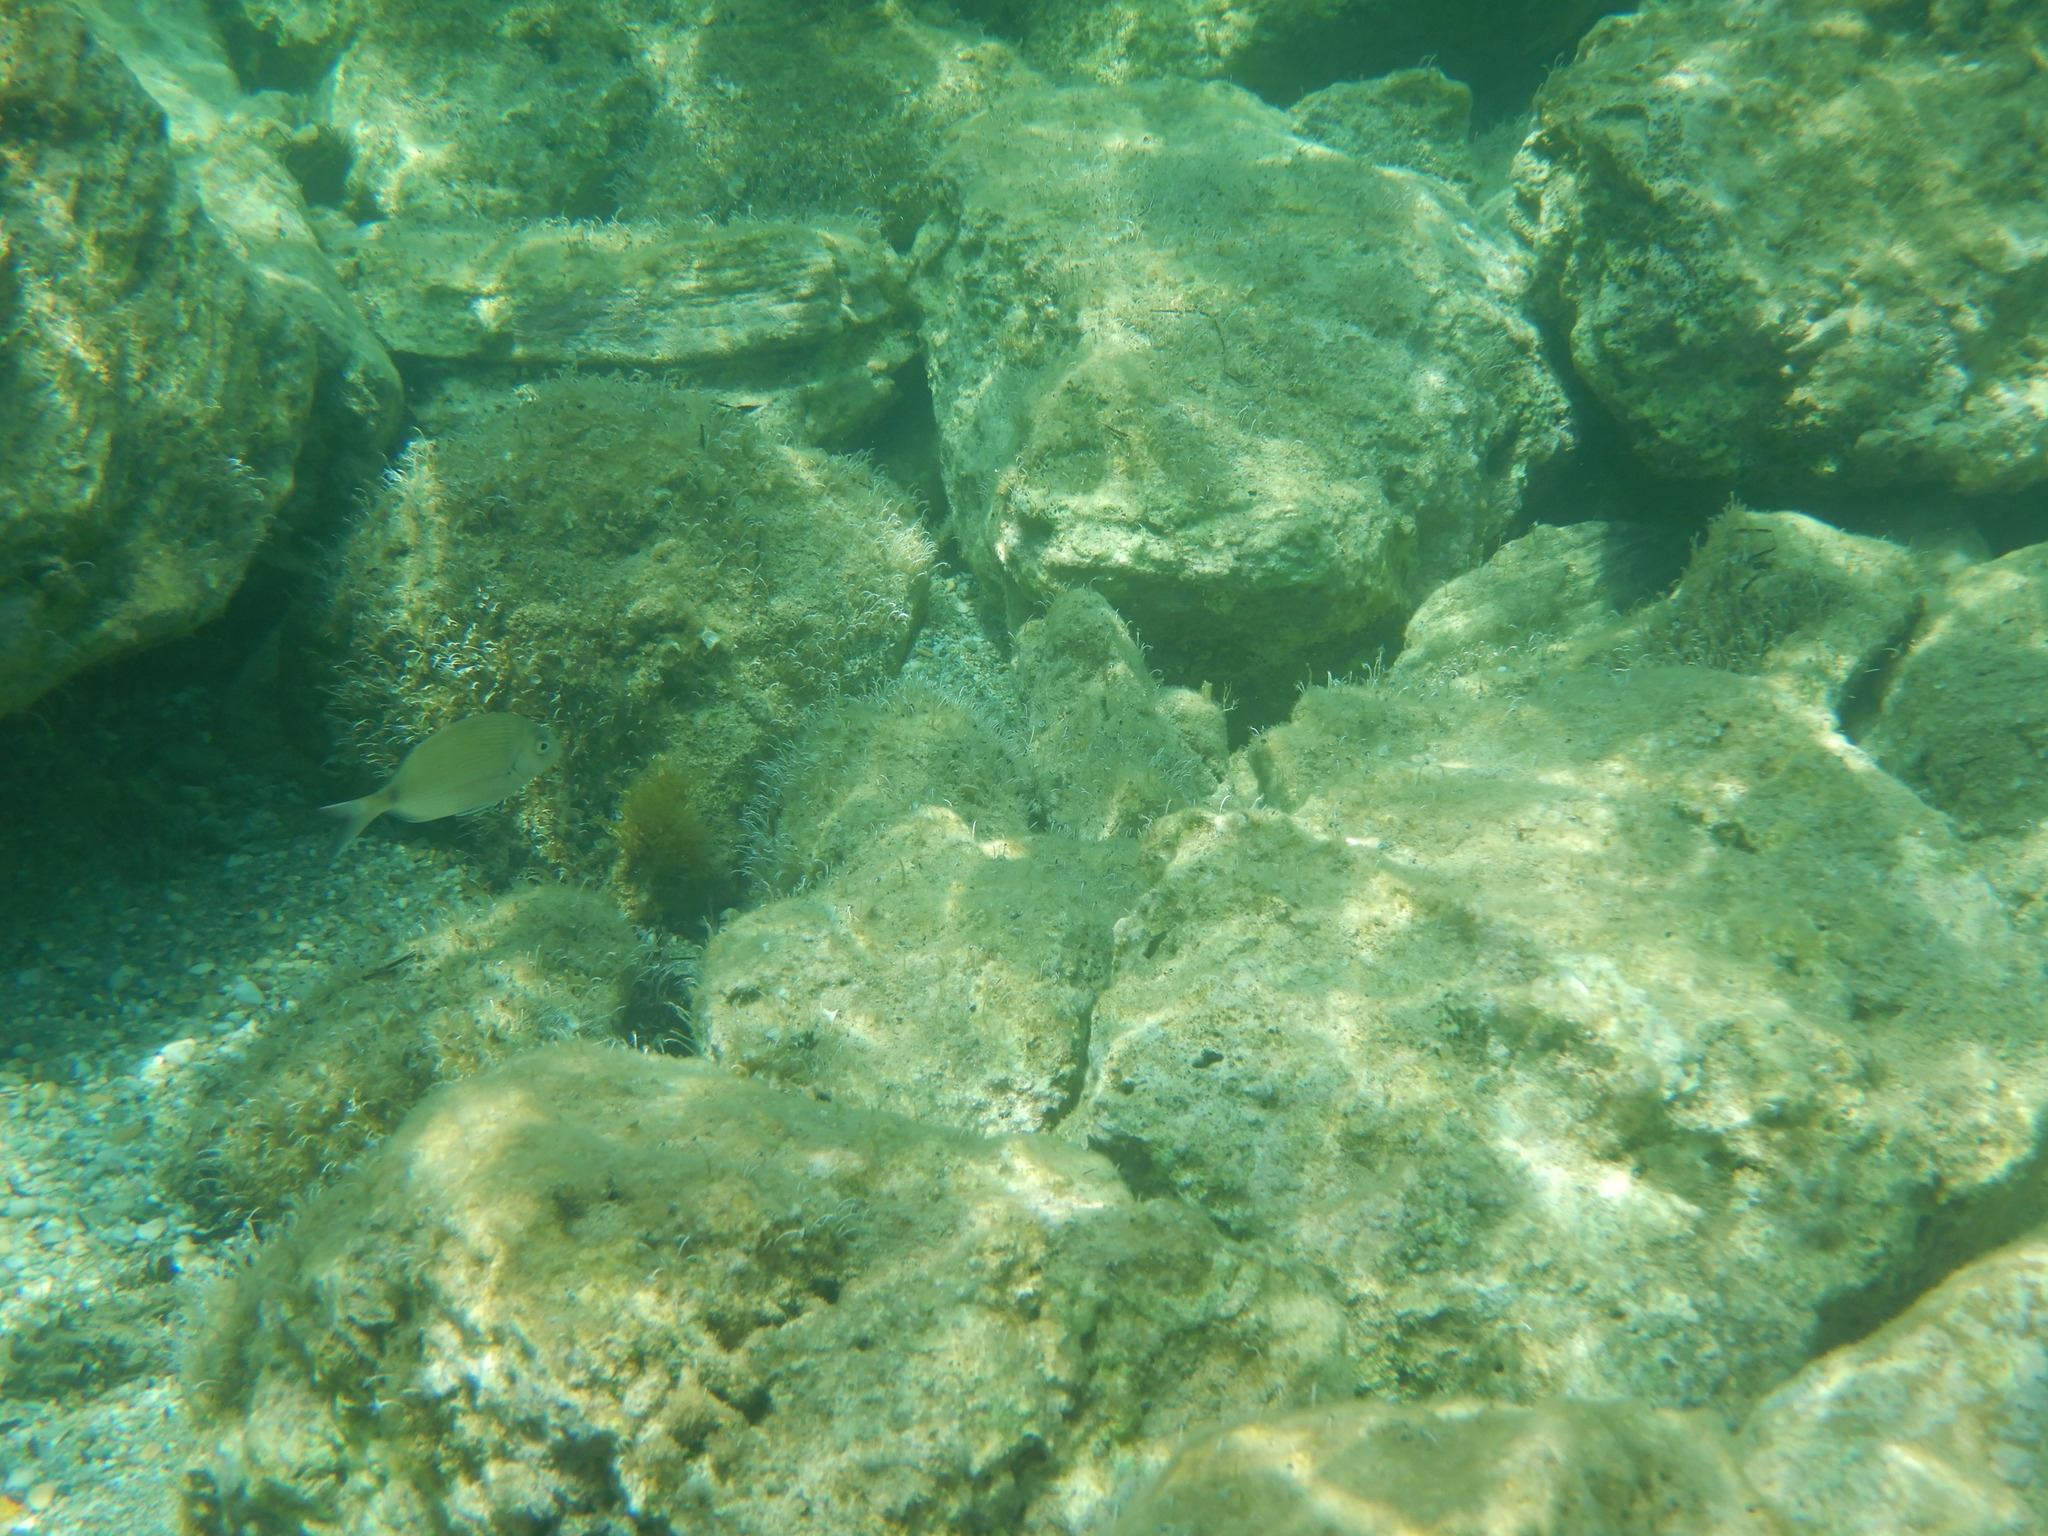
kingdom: Animalia
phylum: Chordata
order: Perciformes
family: Sparidae
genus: Diplodus
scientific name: Diplodus sargus
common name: White seabream
